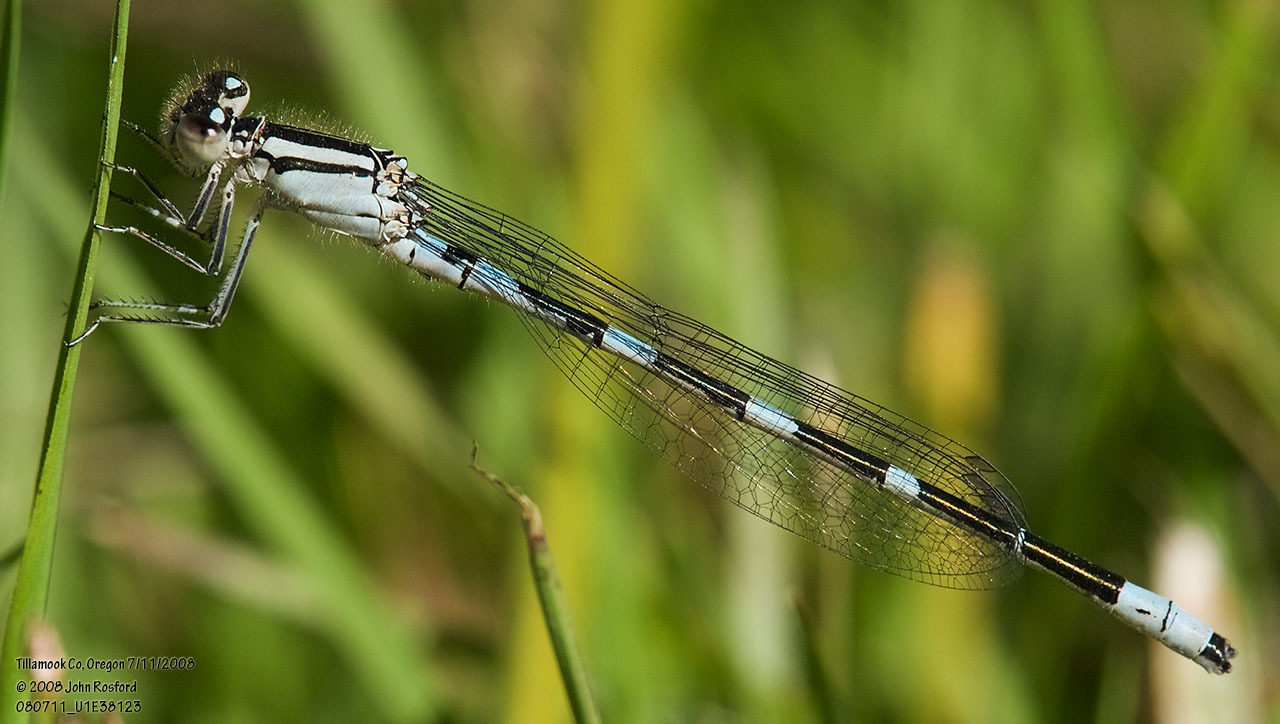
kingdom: Animalia
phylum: Arthropoda
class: Insecta
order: Odonata
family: Coenagrionidae
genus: Enallagma
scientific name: Enallagma carunculatum
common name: Tule bluet
